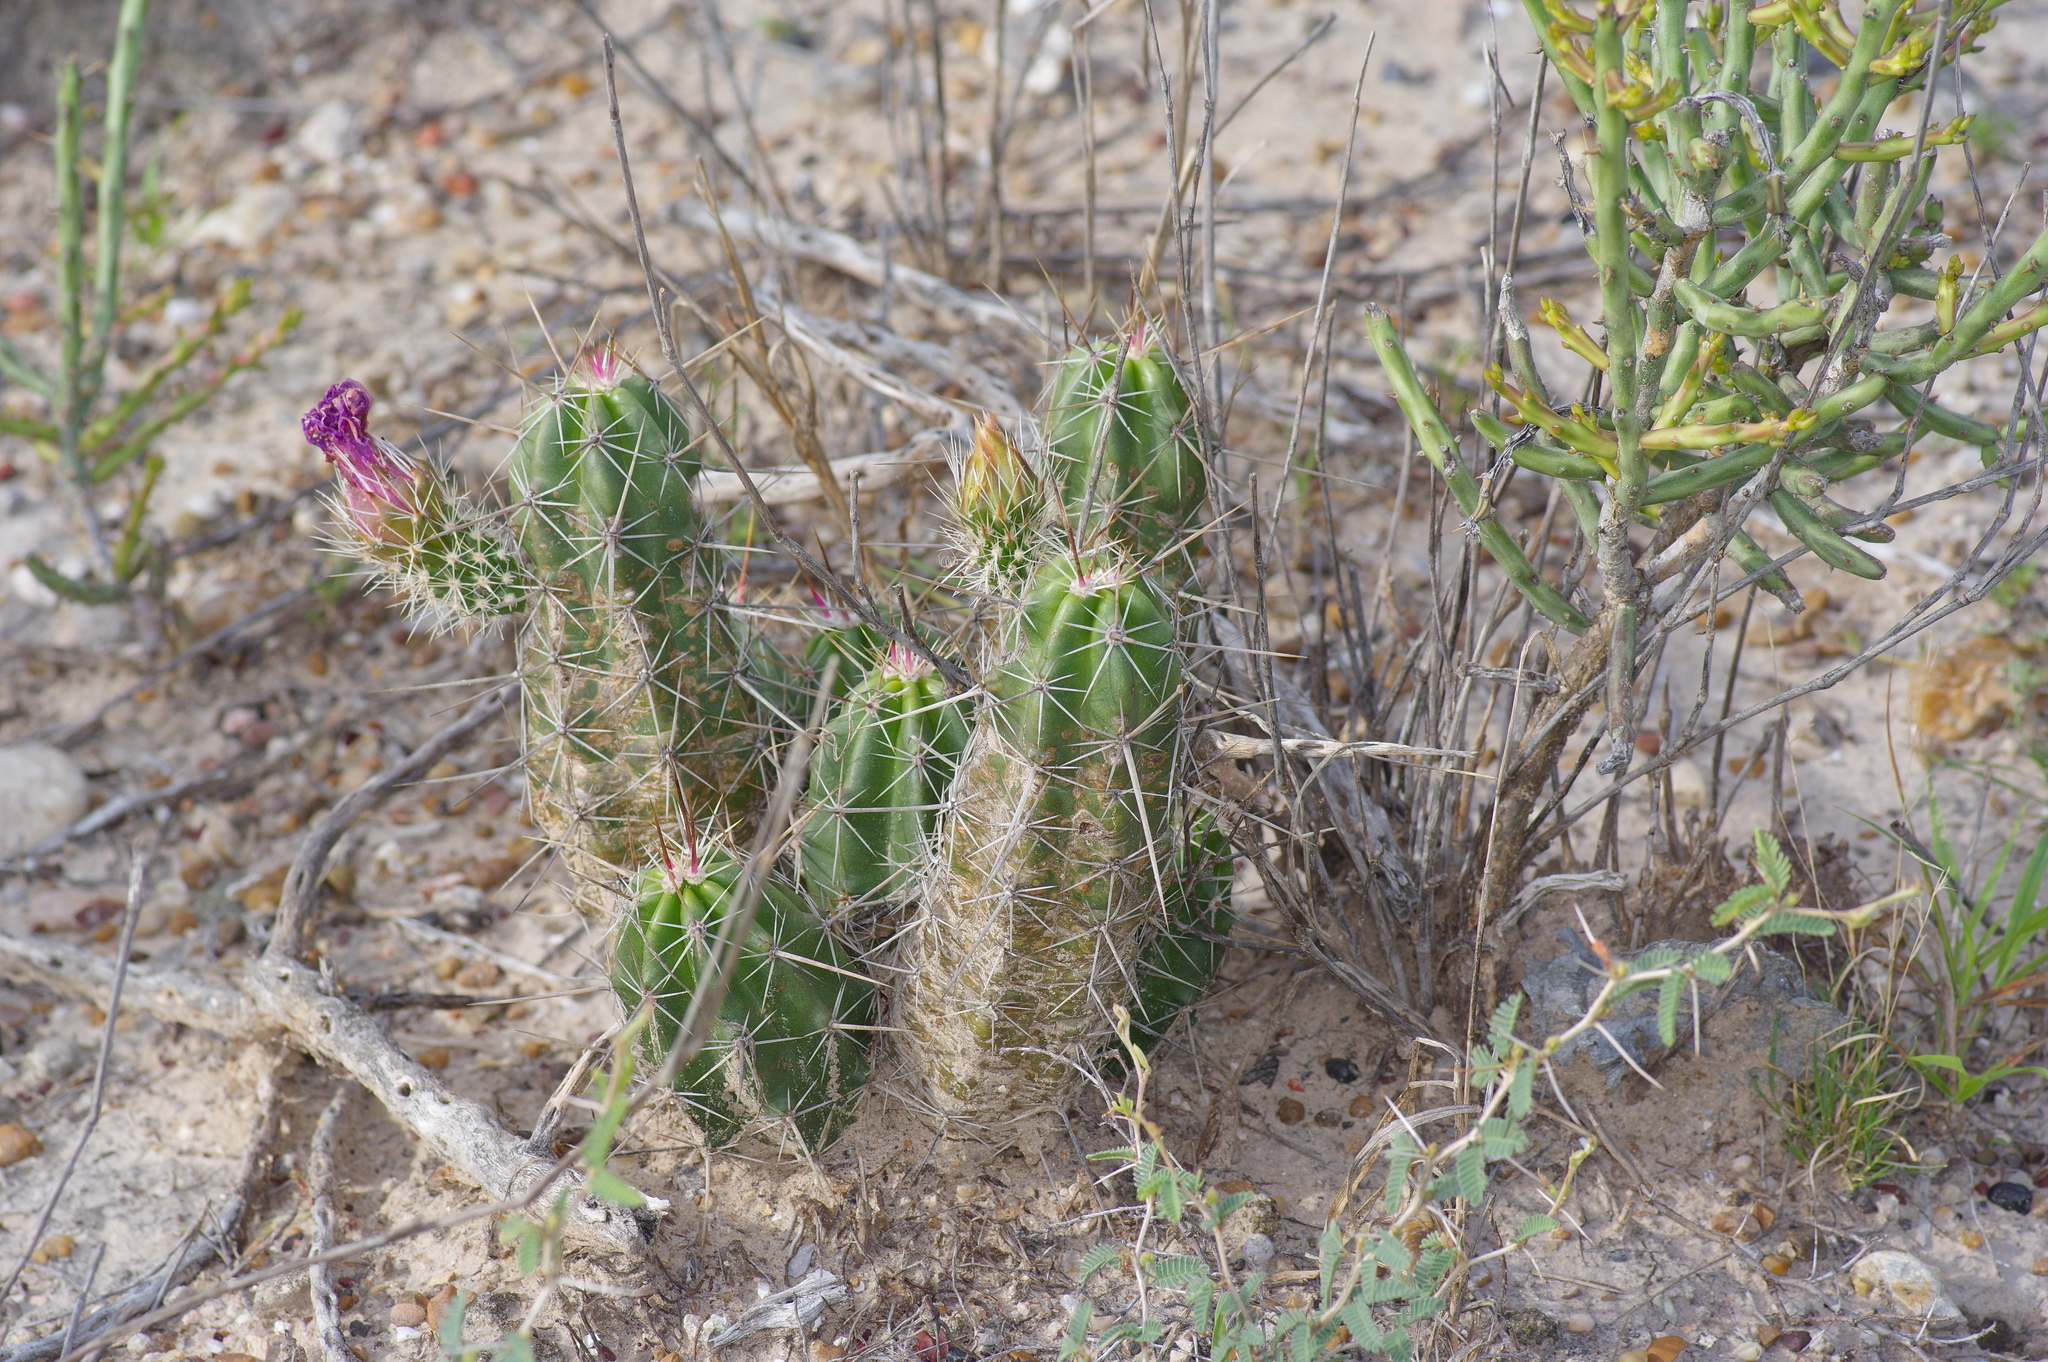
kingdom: Plantae
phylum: Tracheophyta
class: Magnoliopsida
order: Caryophyllales
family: Cactaceae
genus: Echinocereus
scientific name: Echinocereus enneacanthus
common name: Pitaya
